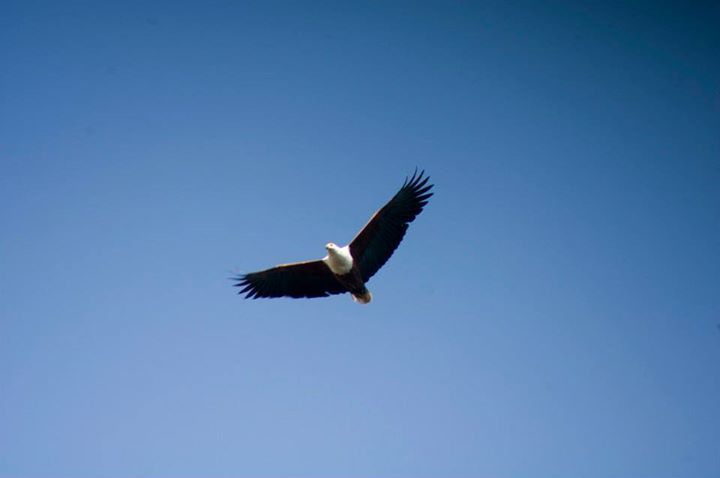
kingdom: Animalia
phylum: Chordata
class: Aves
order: Accipitriformes
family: Accipitridae
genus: Haliaeetus
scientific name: Haliaeetus vocifer
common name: African fish eagle
